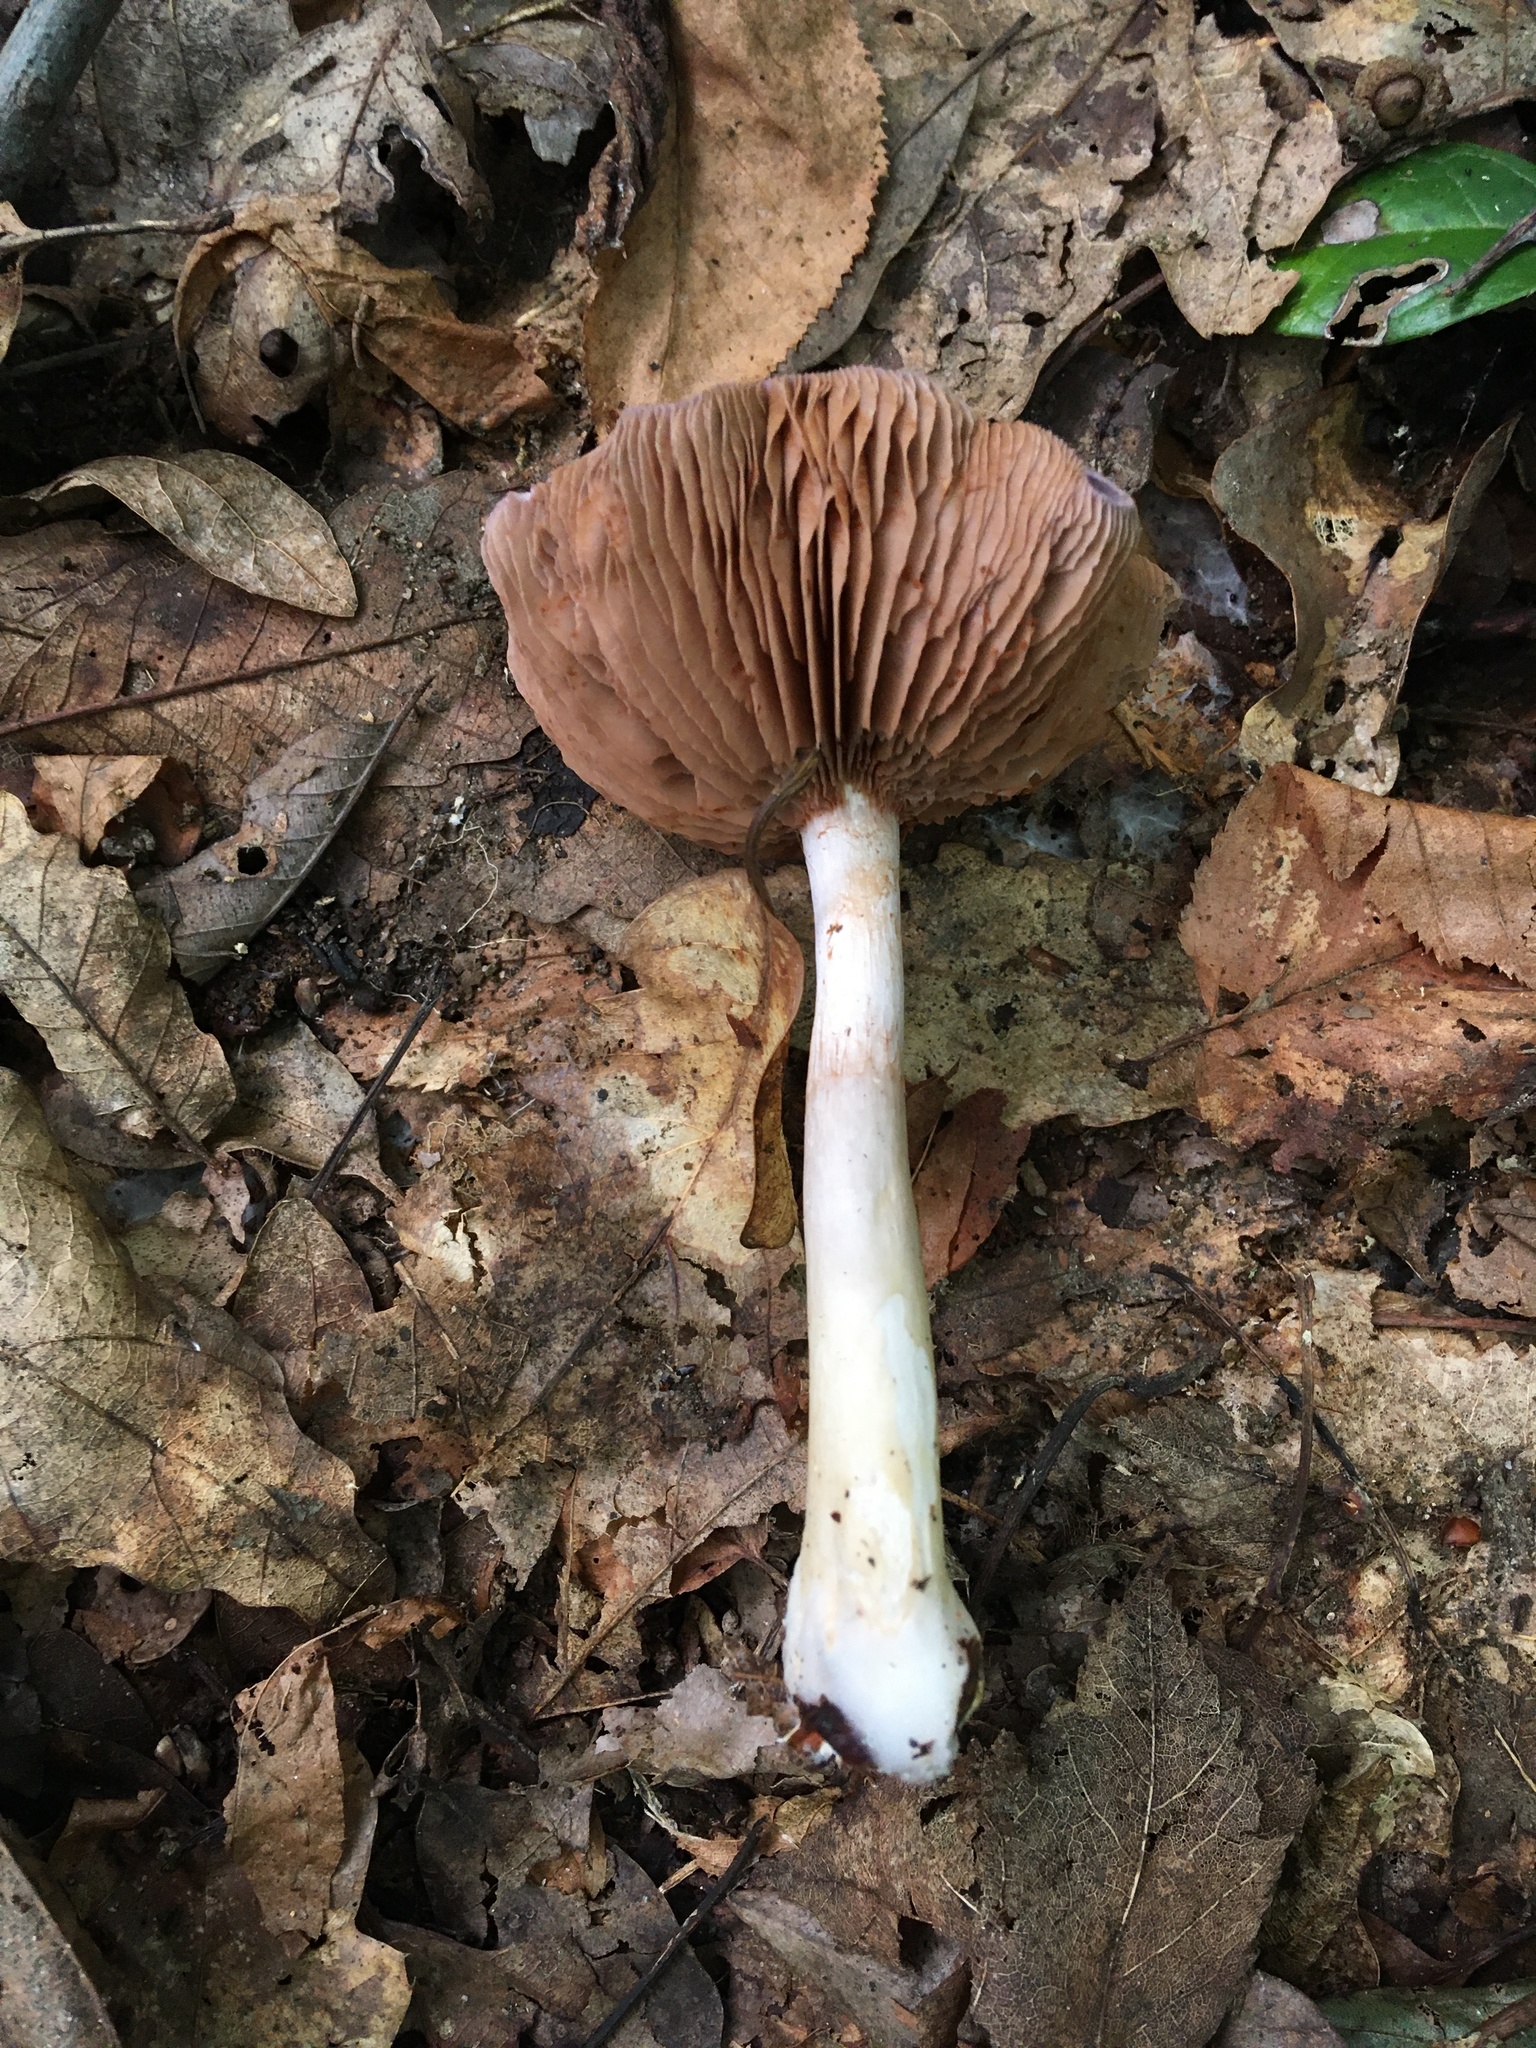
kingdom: Fungi
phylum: Basidiomycota
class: Agaricomycetes
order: Agaricales
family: Cortinariaceae
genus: Cortinarius
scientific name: Cortinarius iodes
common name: Viscid violet cort
